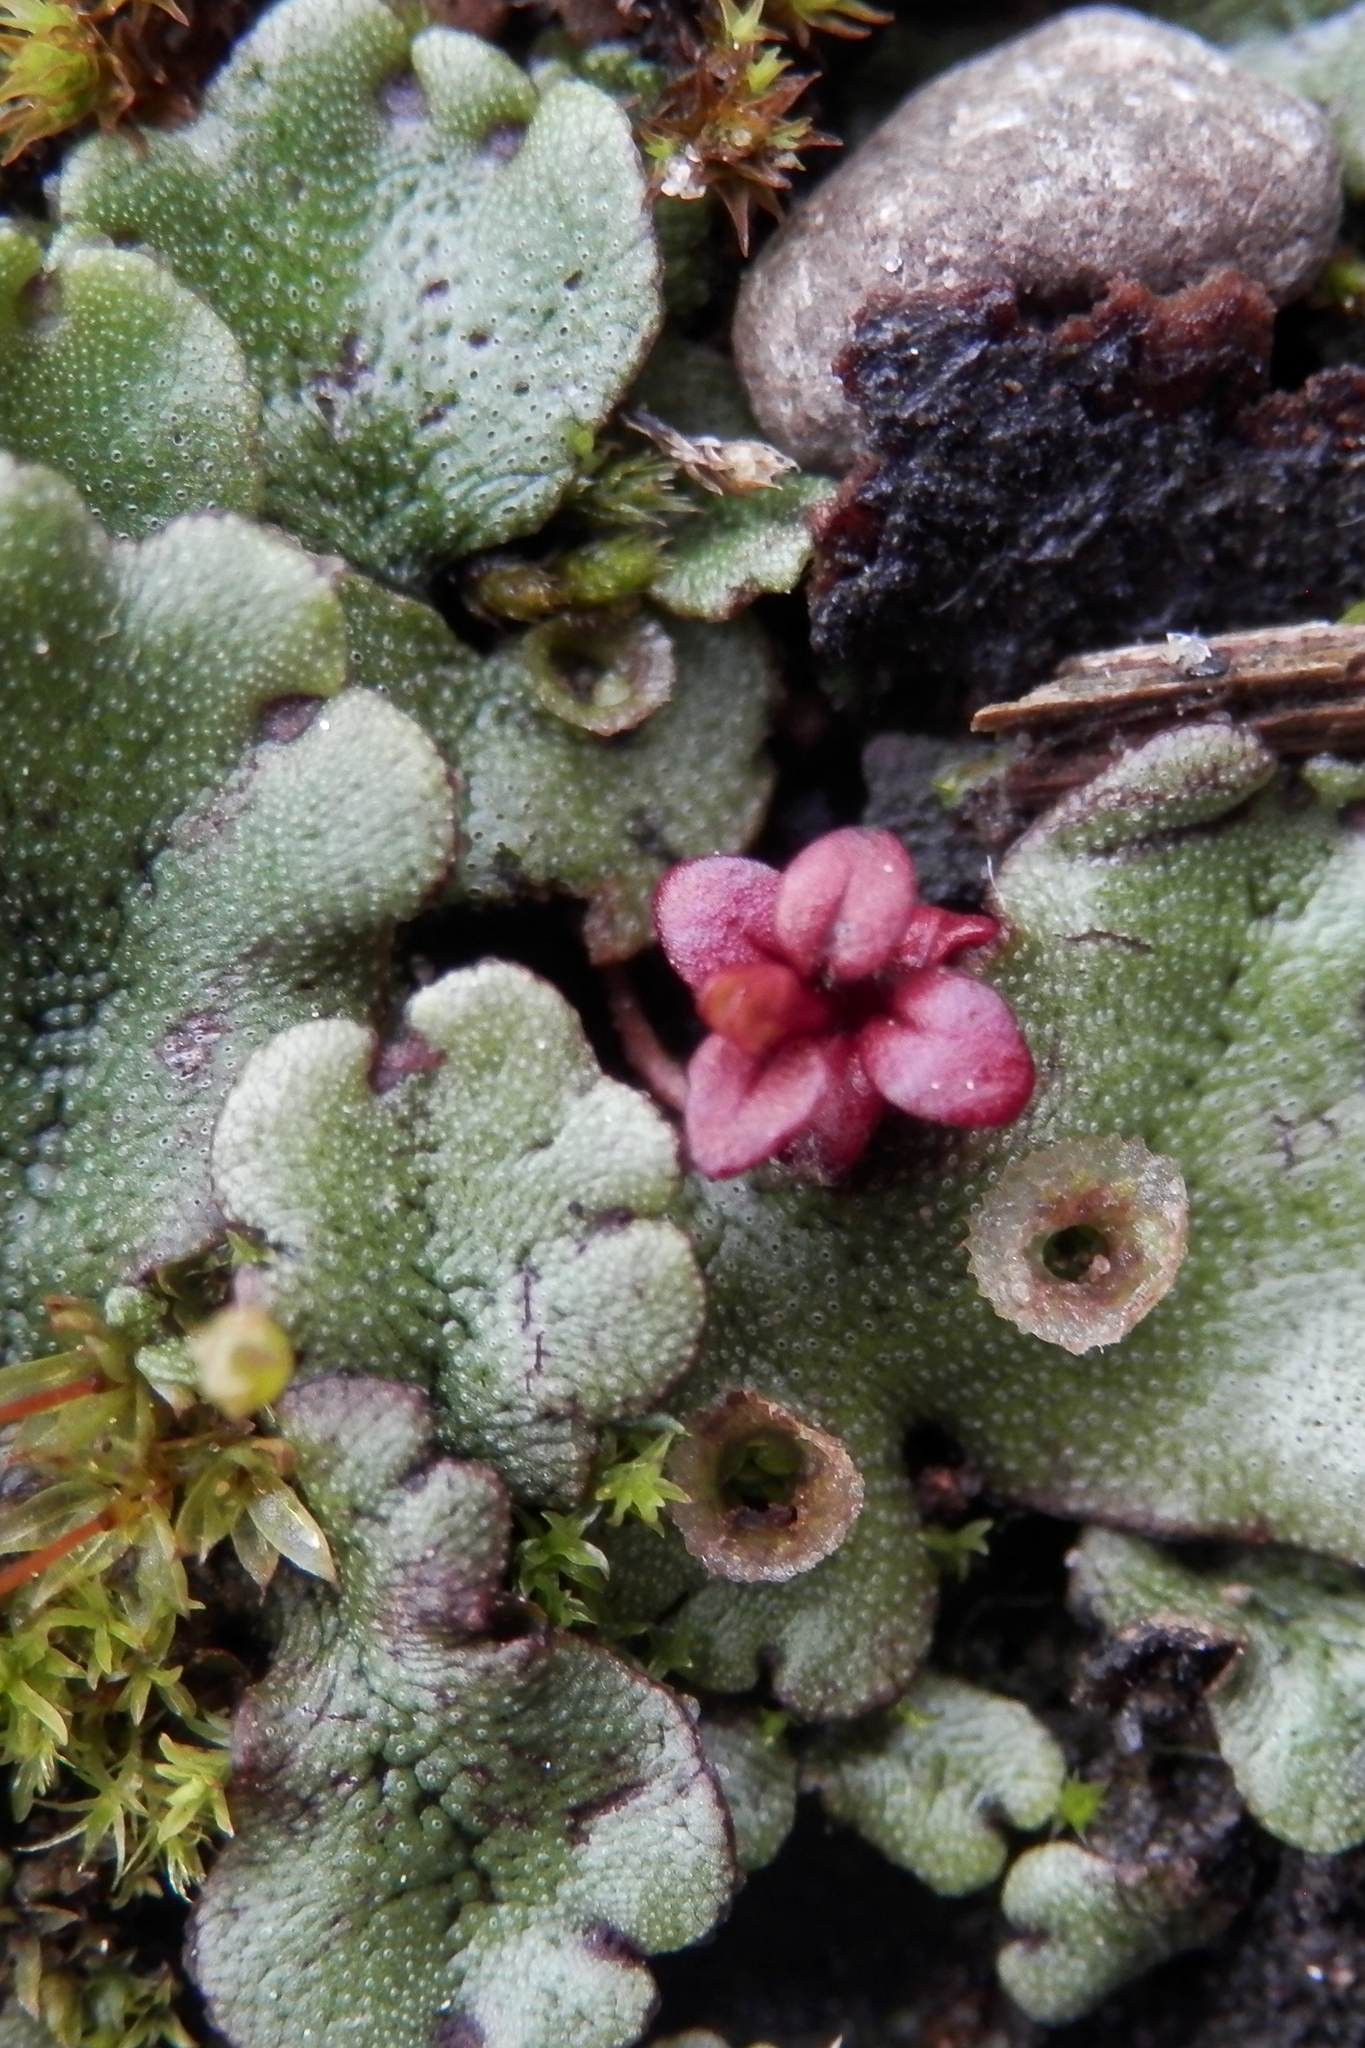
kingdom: Plantae
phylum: Marchantiophyta
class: Marchantiopsida
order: Marchantiales
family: Marchantiaceae
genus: Marchantia
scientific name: Marchantia polymorpha
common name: Common liverwort
